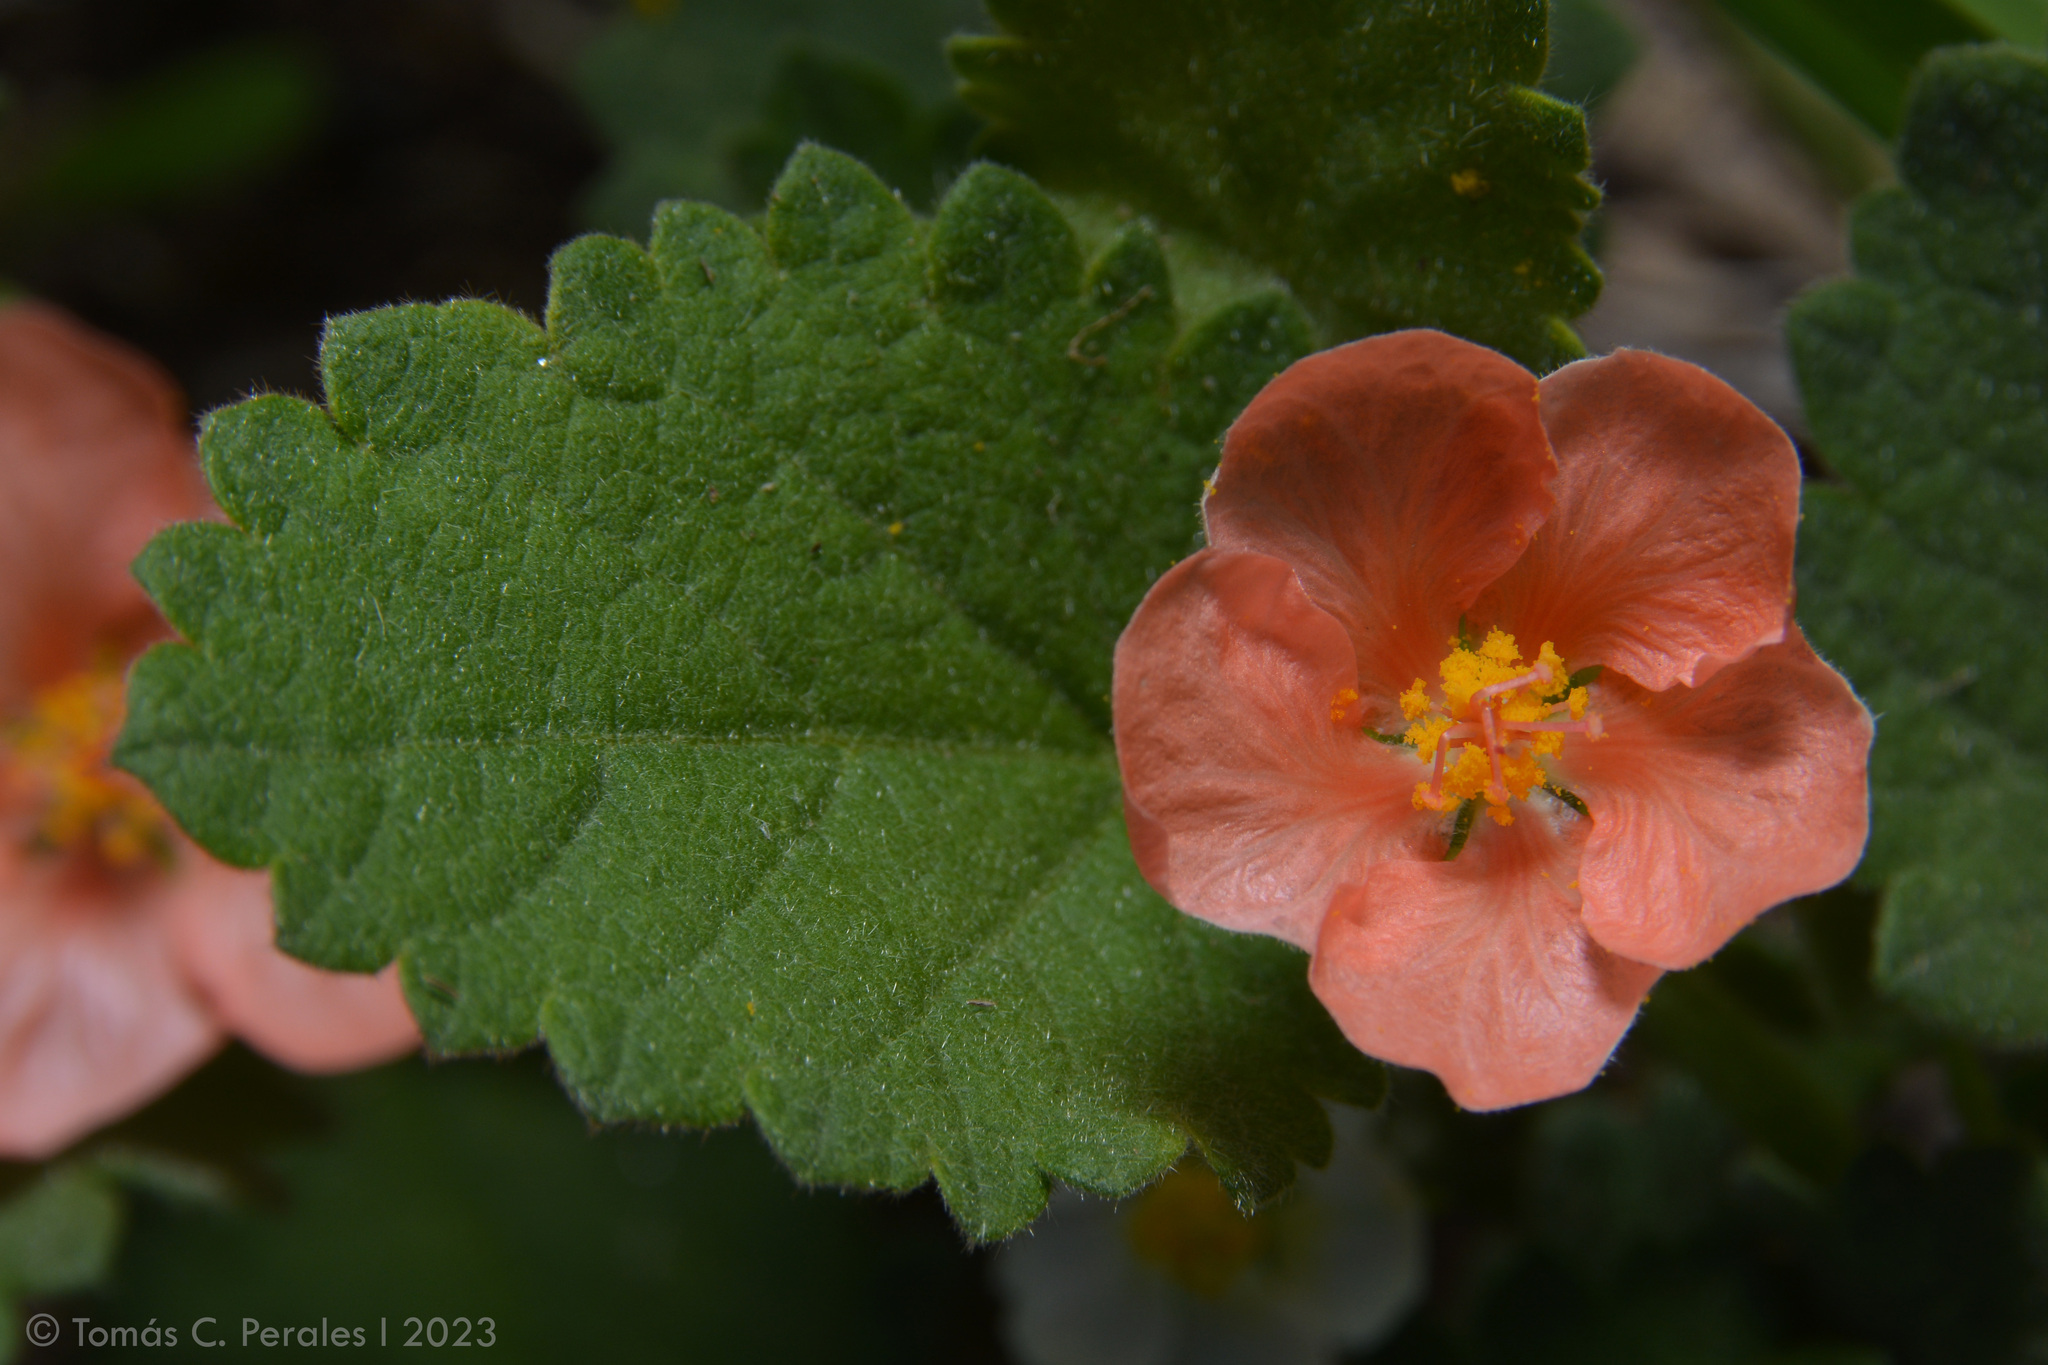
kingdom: Plantae
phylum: Tracheophyta
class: Magnoliopsida
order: Malvales
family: Malvaceae
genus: Krapovickasia
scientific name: Krapovickasia flavescens
